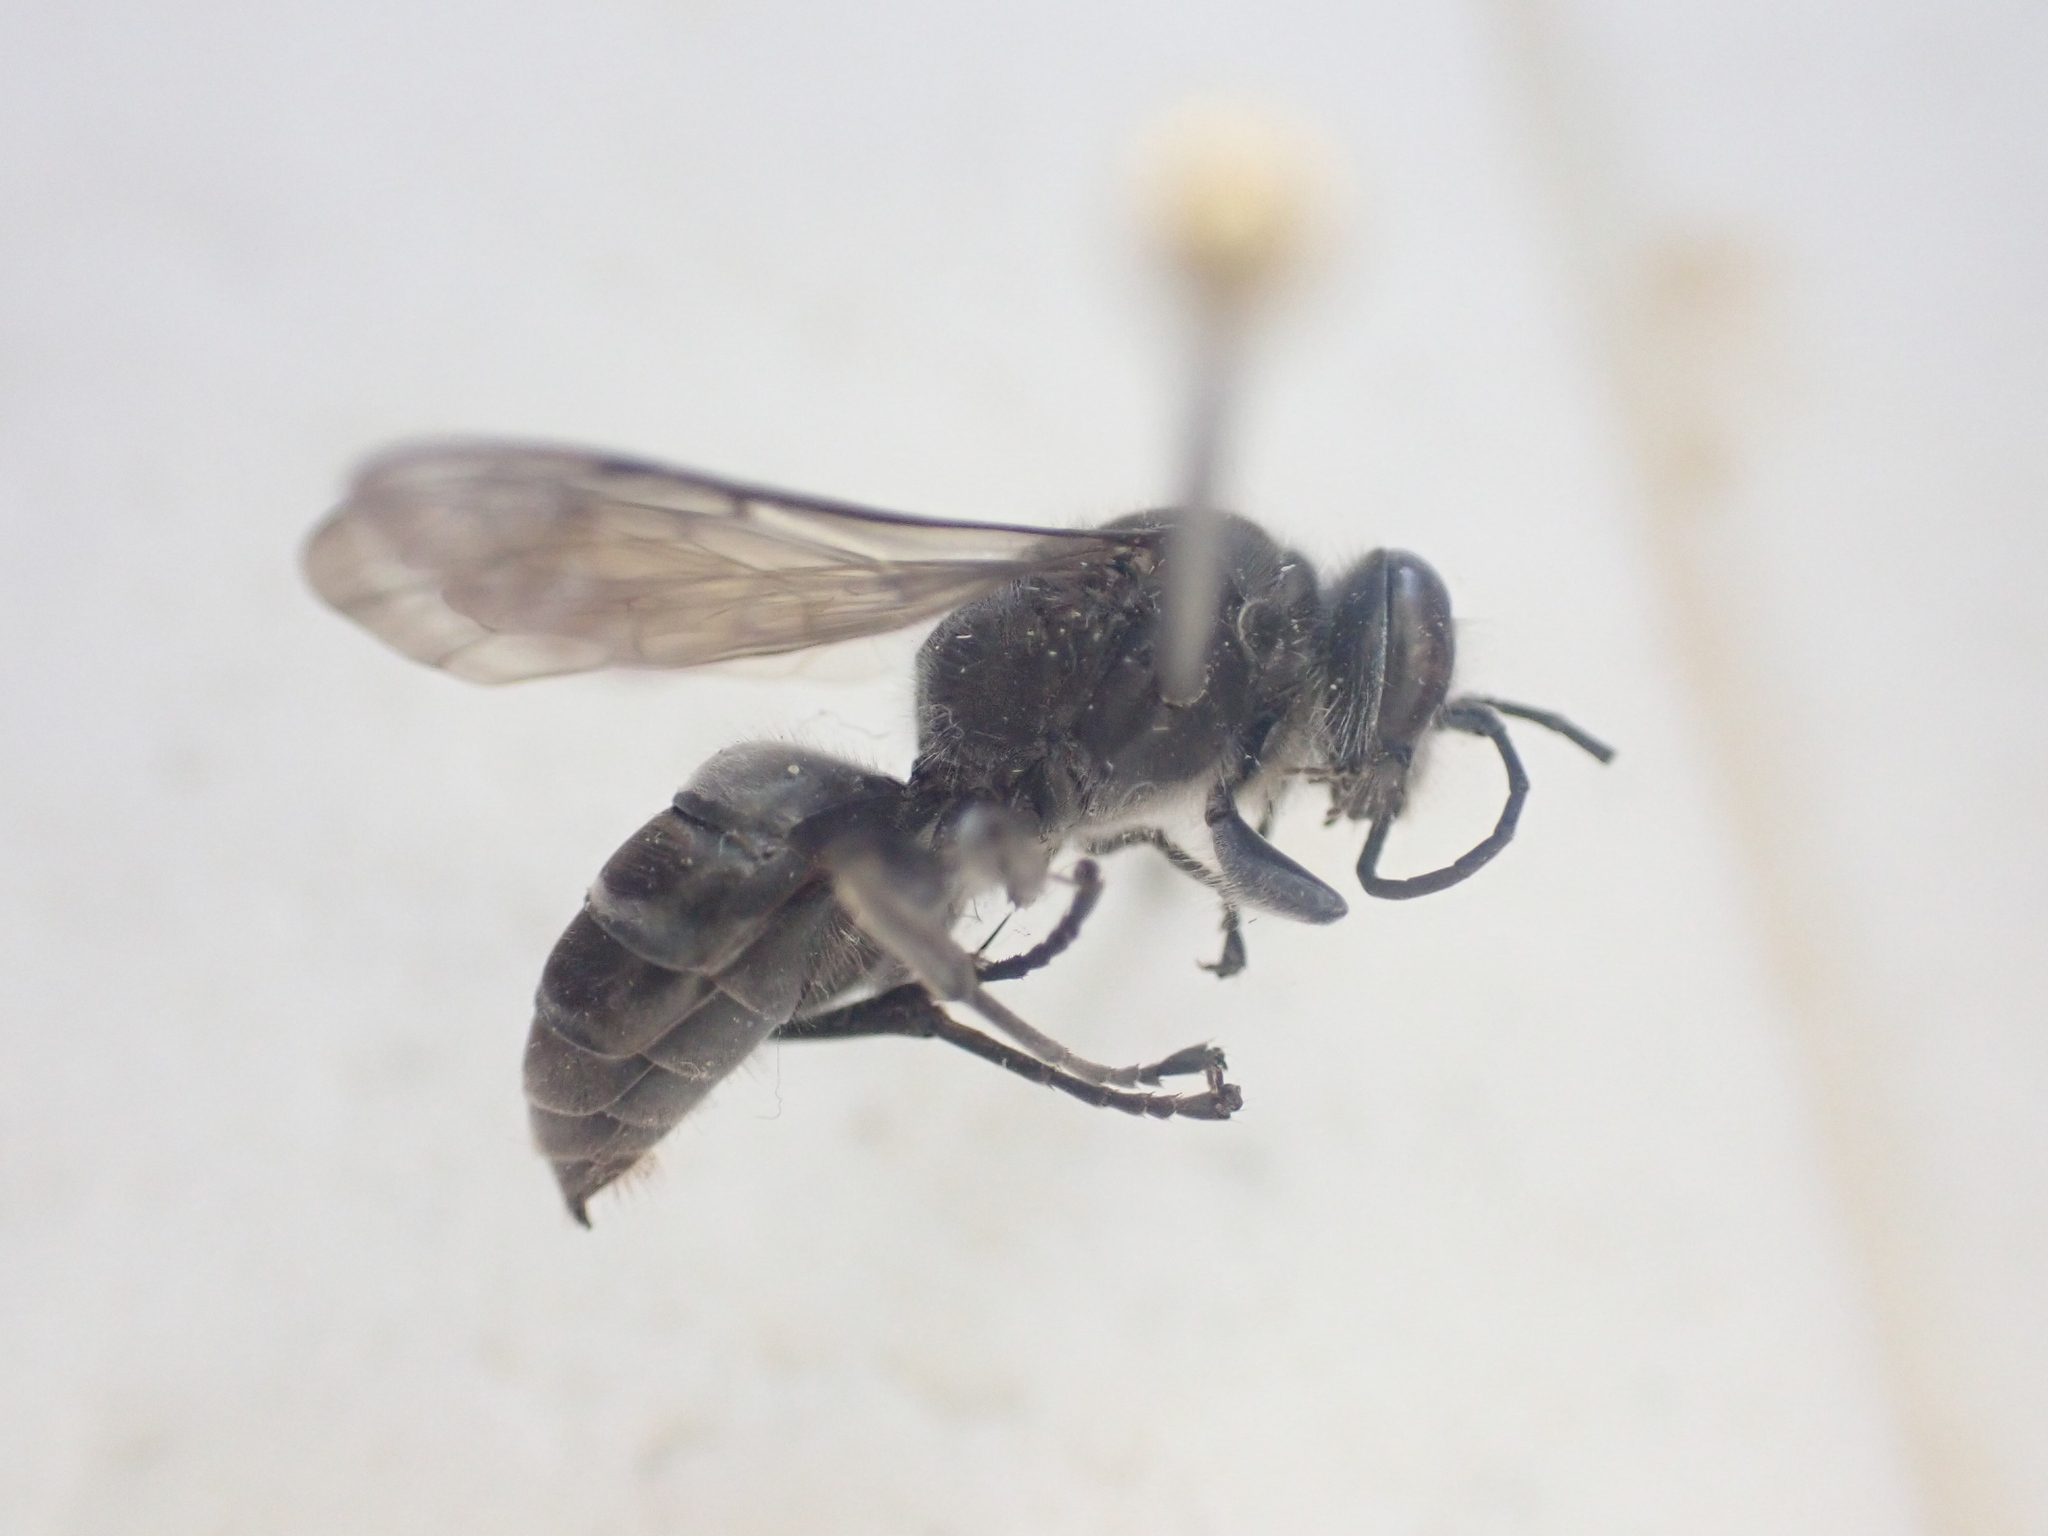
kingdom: Animalia
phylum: Arthropoda
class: Insecta
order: Hymenoptera
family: Crabronidae
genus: Pison
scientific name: Pison spinolae
